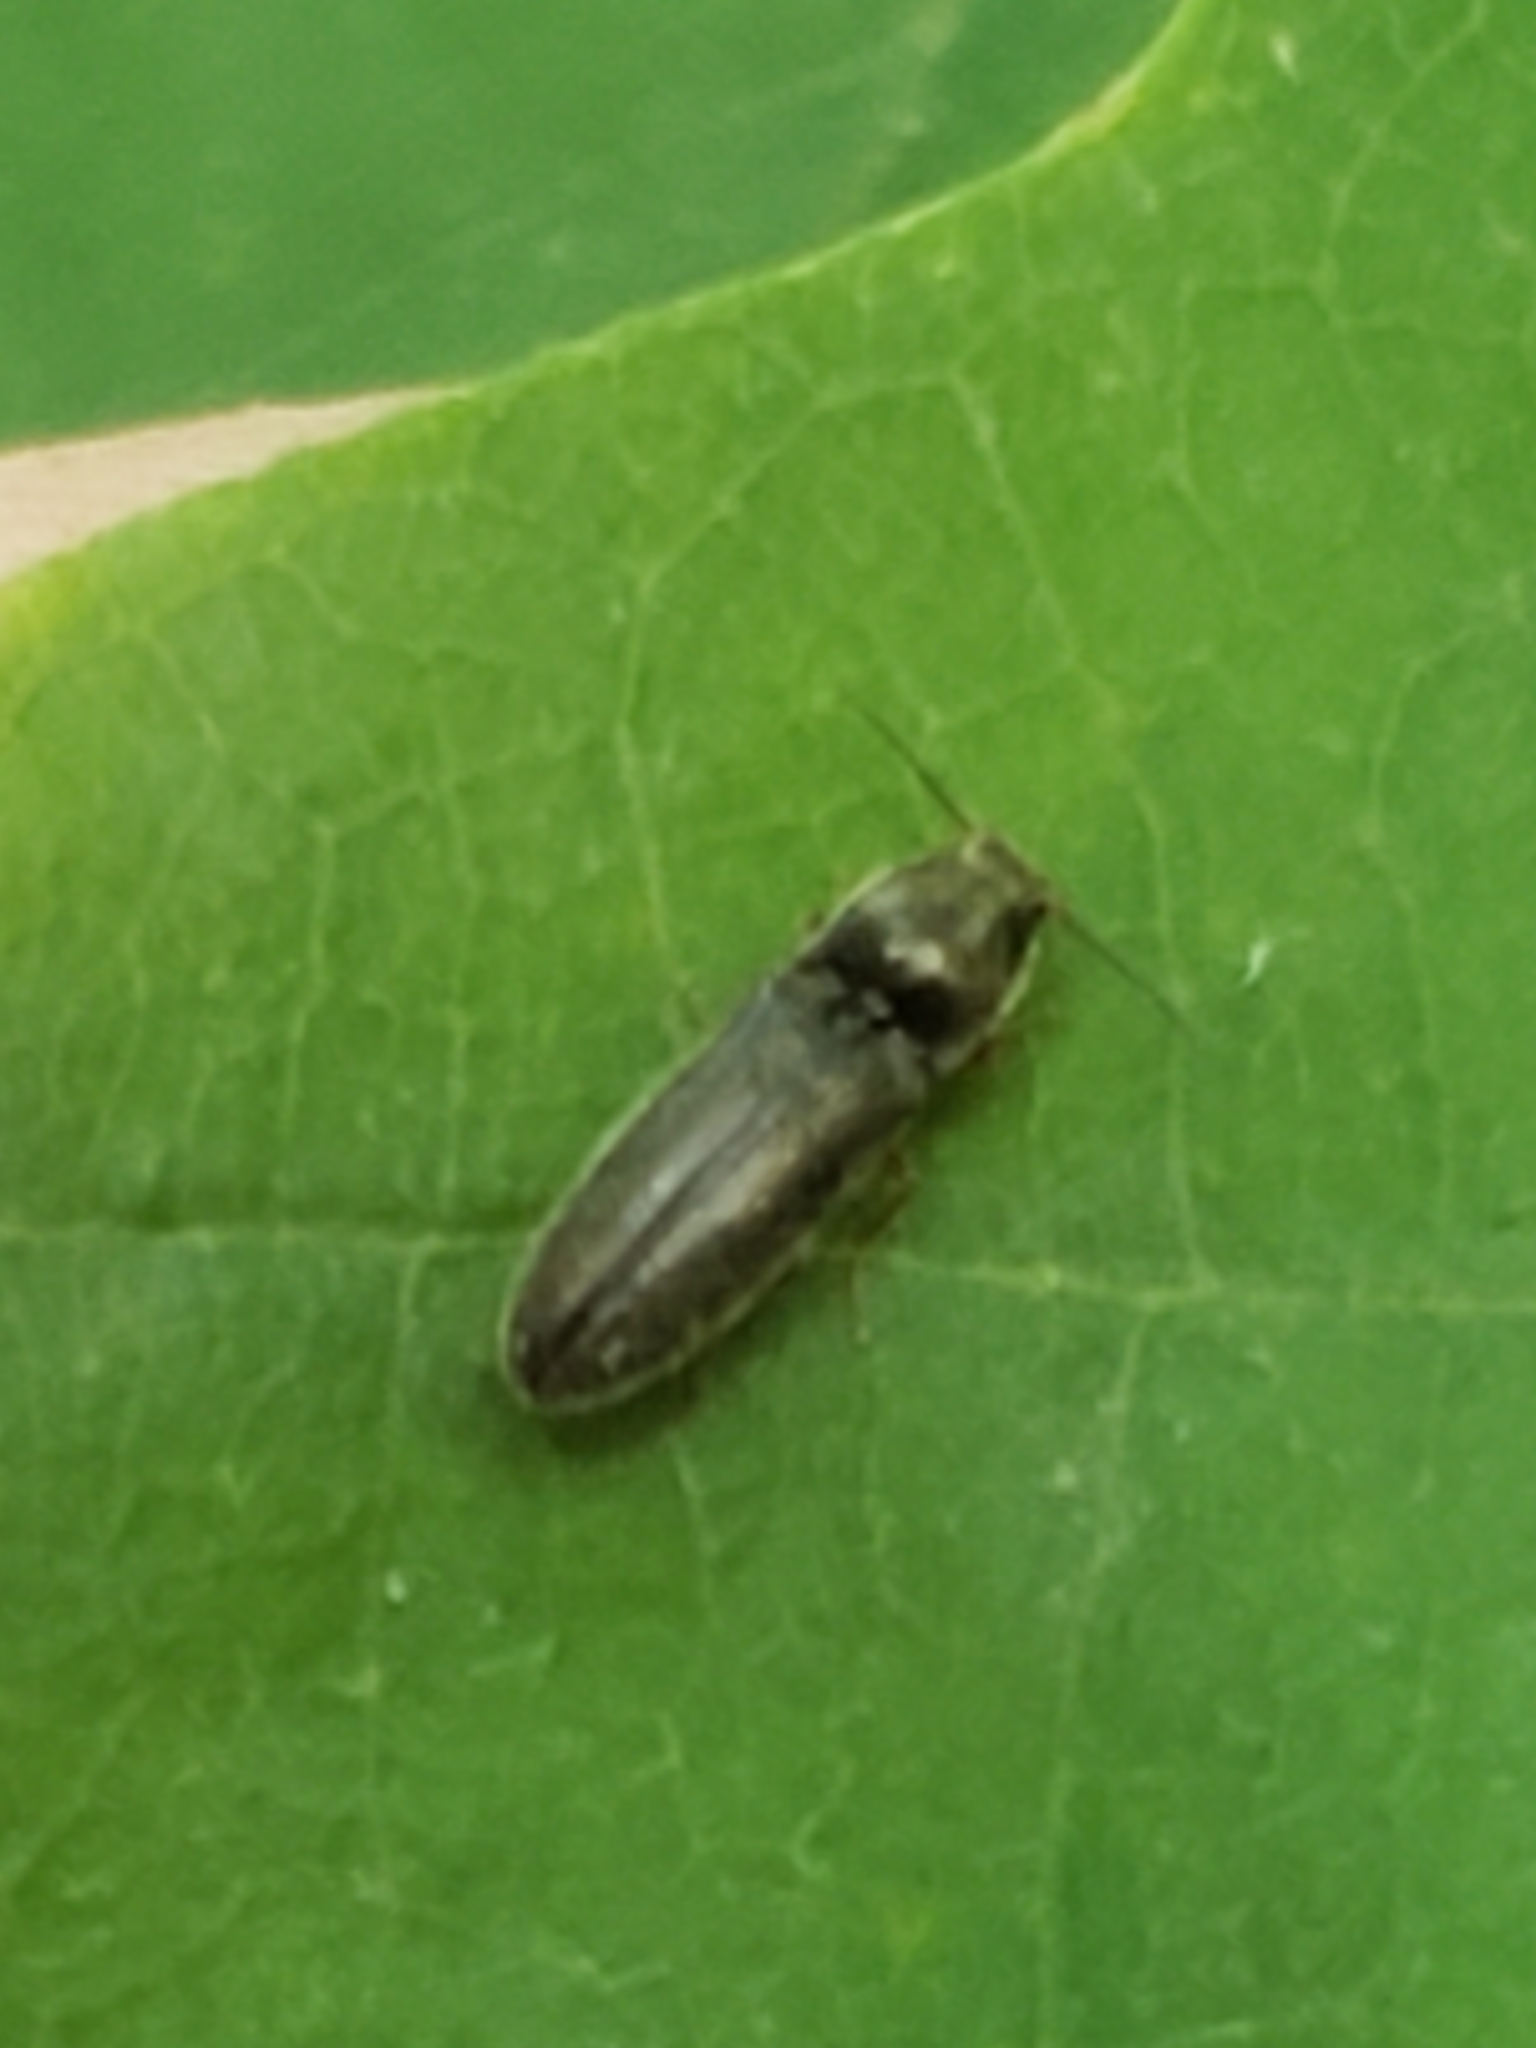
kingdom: Animalia
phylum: Arthropoda
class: Insecta
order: Coleoptera
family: Elateridae
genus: Limonius
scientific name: Limonius quercinus
